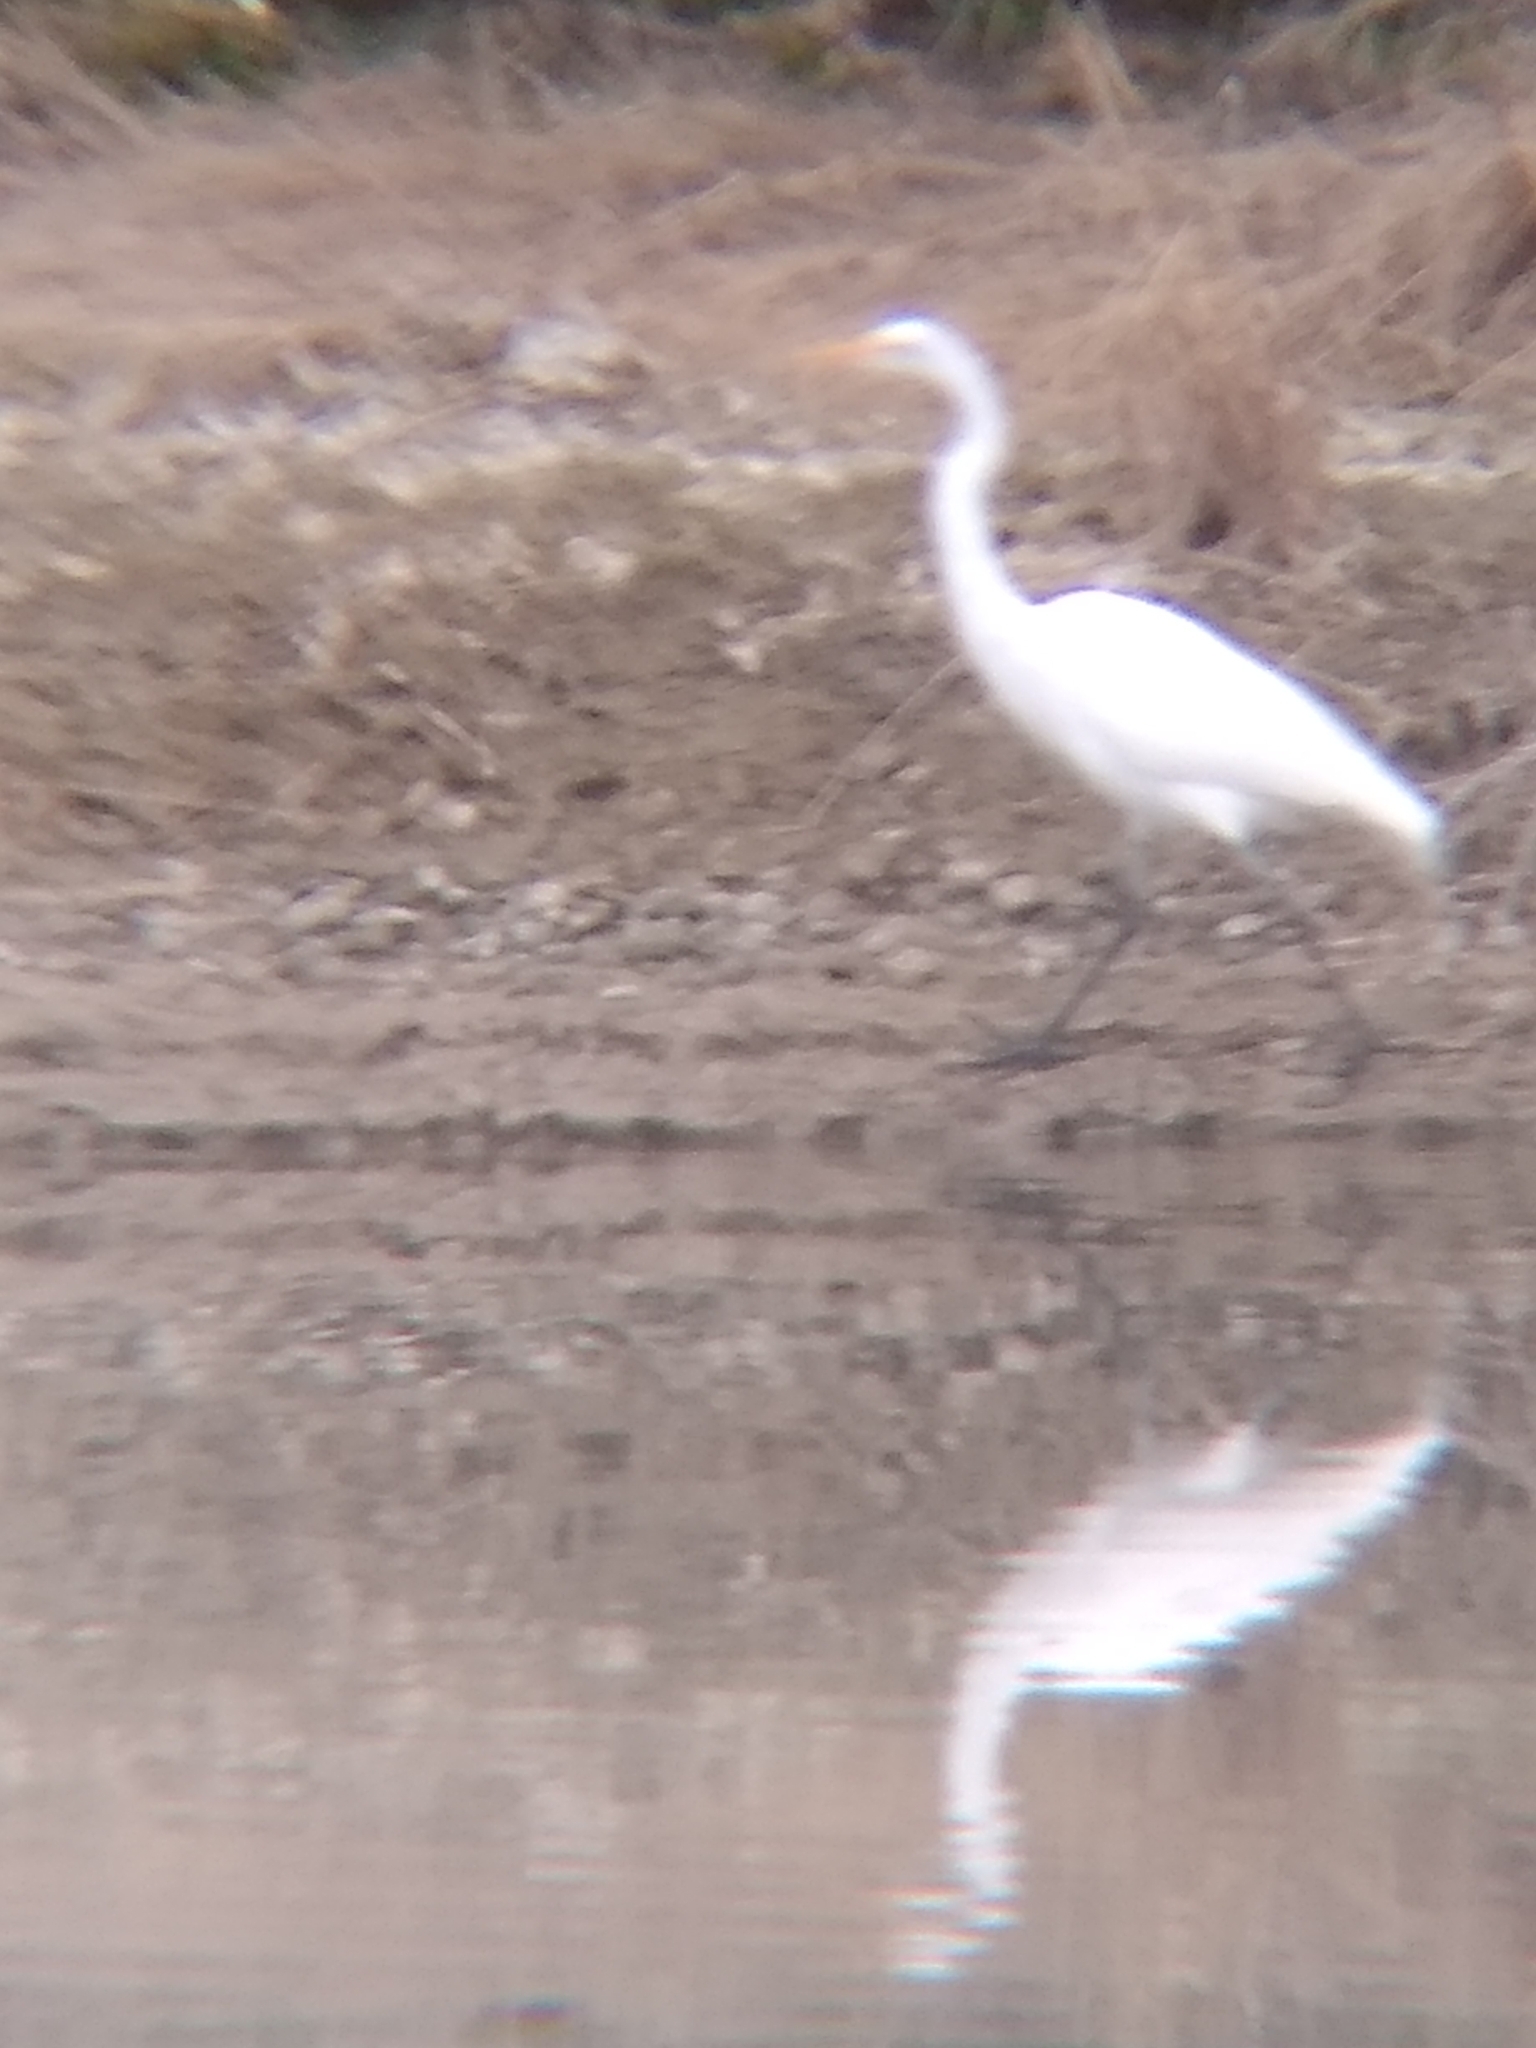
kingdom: Animalia
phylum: Chordata
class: Aves
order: Pelecaniformes
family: Ardeidae
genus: Ardea
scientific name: Ardea alba
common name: Great egret
